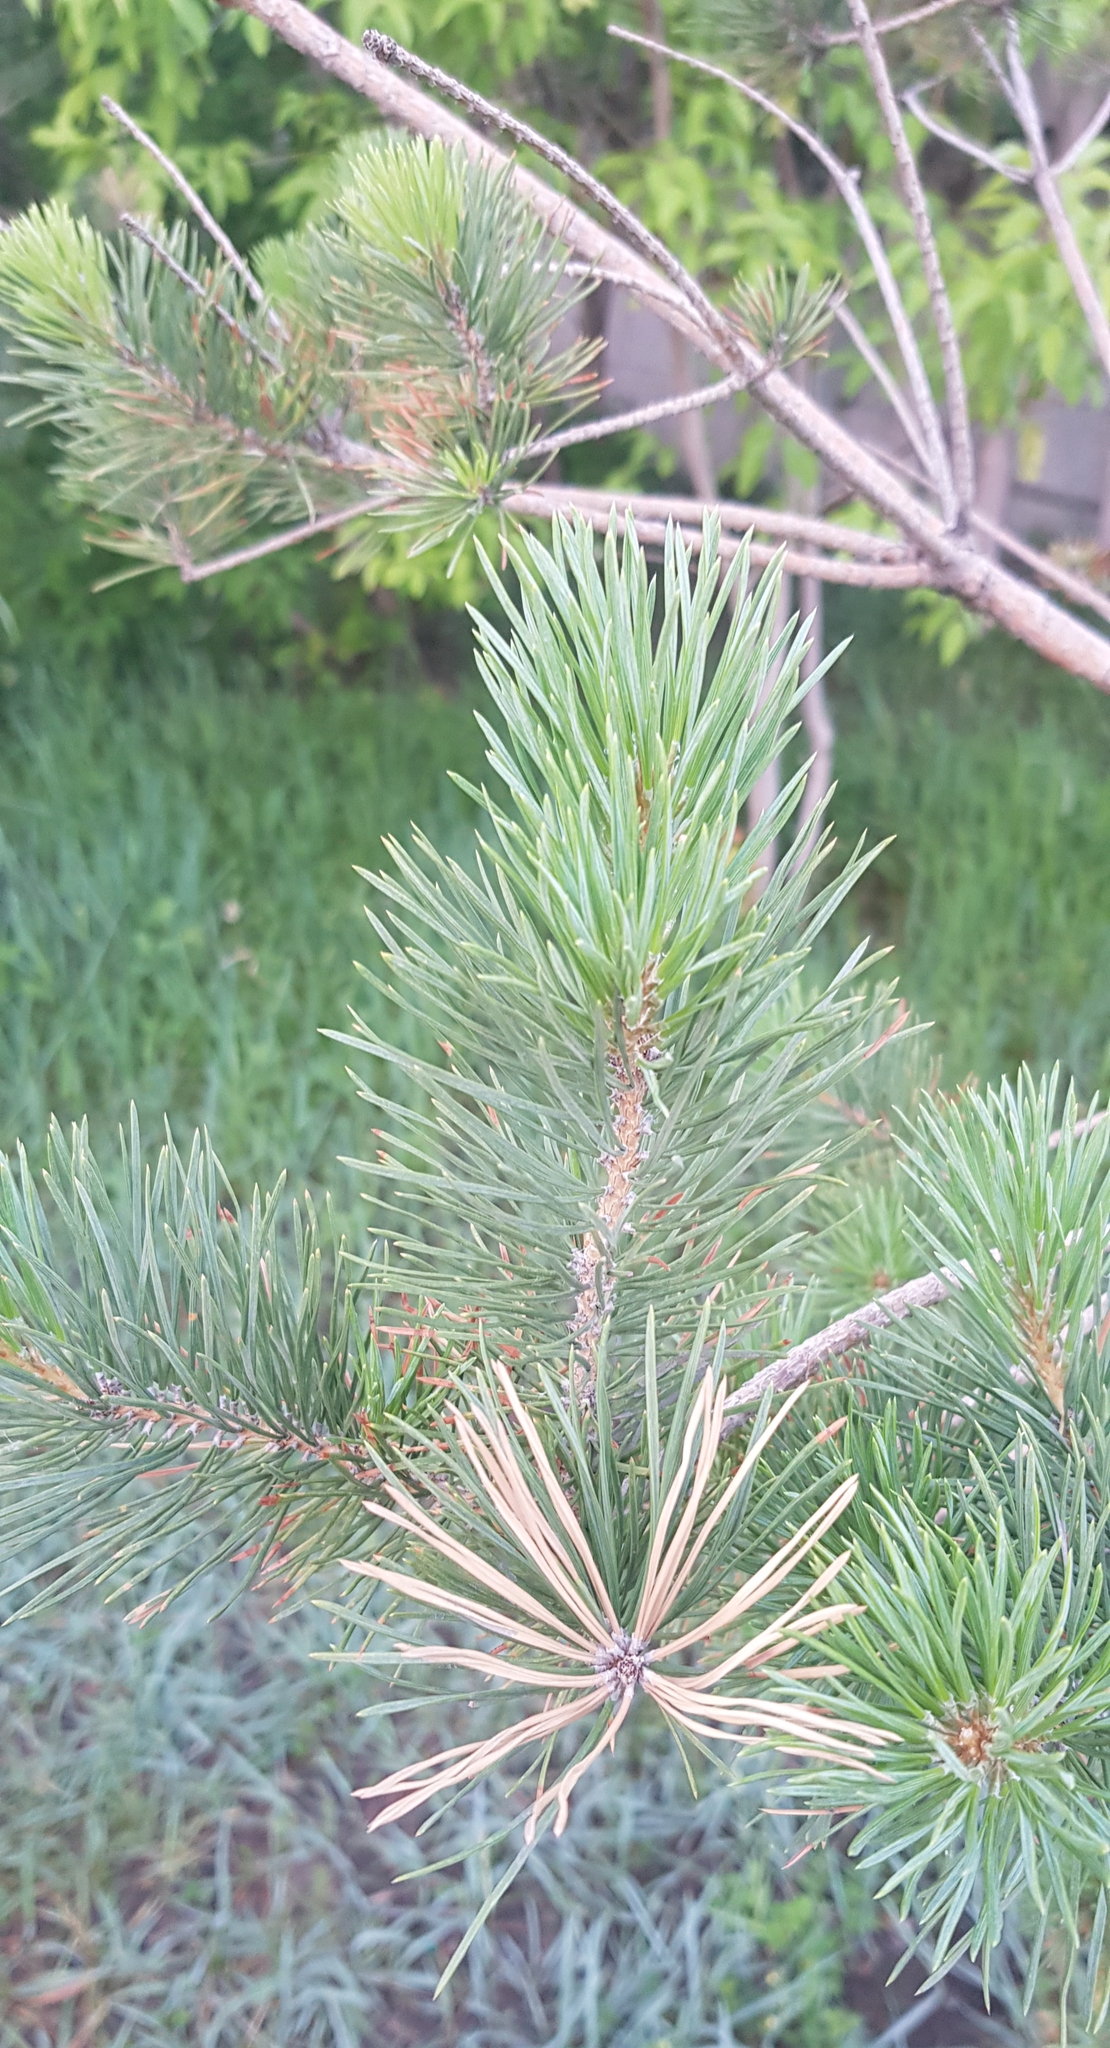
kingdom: Plantae
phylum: Tracheophyta
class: Pinopsida
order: Pinales
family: Pinaceae
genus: Pinus
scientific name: Pinus sylvestris
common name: Scots pine
